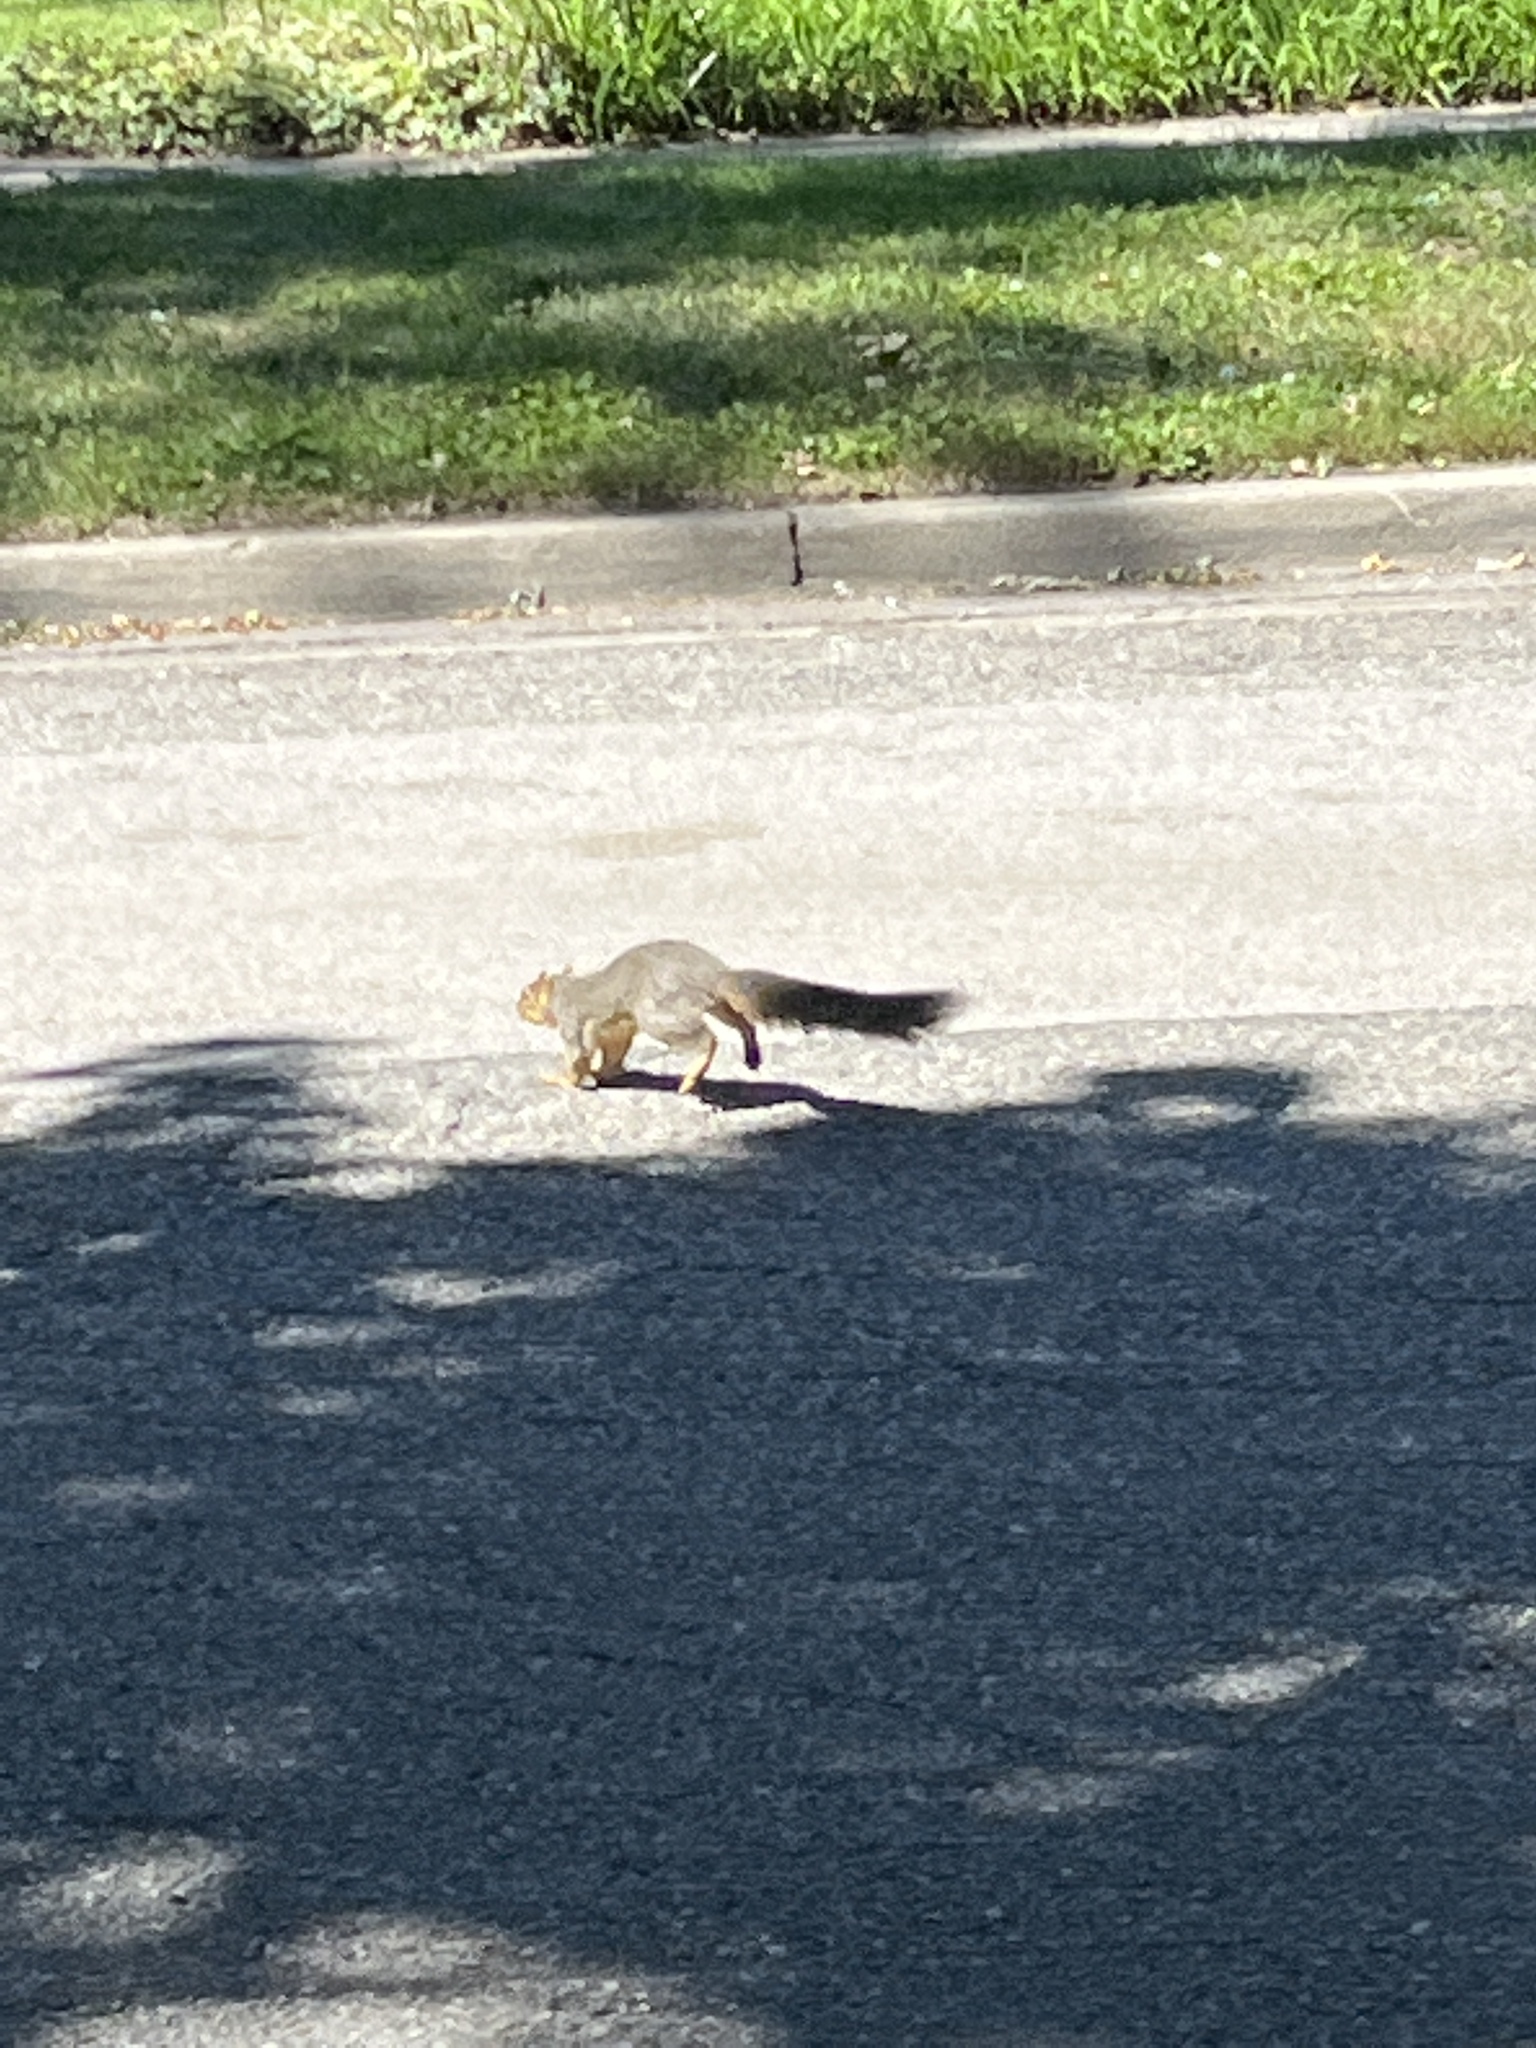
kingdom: Animalia
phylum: Chordata
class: Mammalia
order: Rodentia
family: Sciuridae
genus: Sciurus
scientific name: Sciurus niger
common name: Fox squirrel
